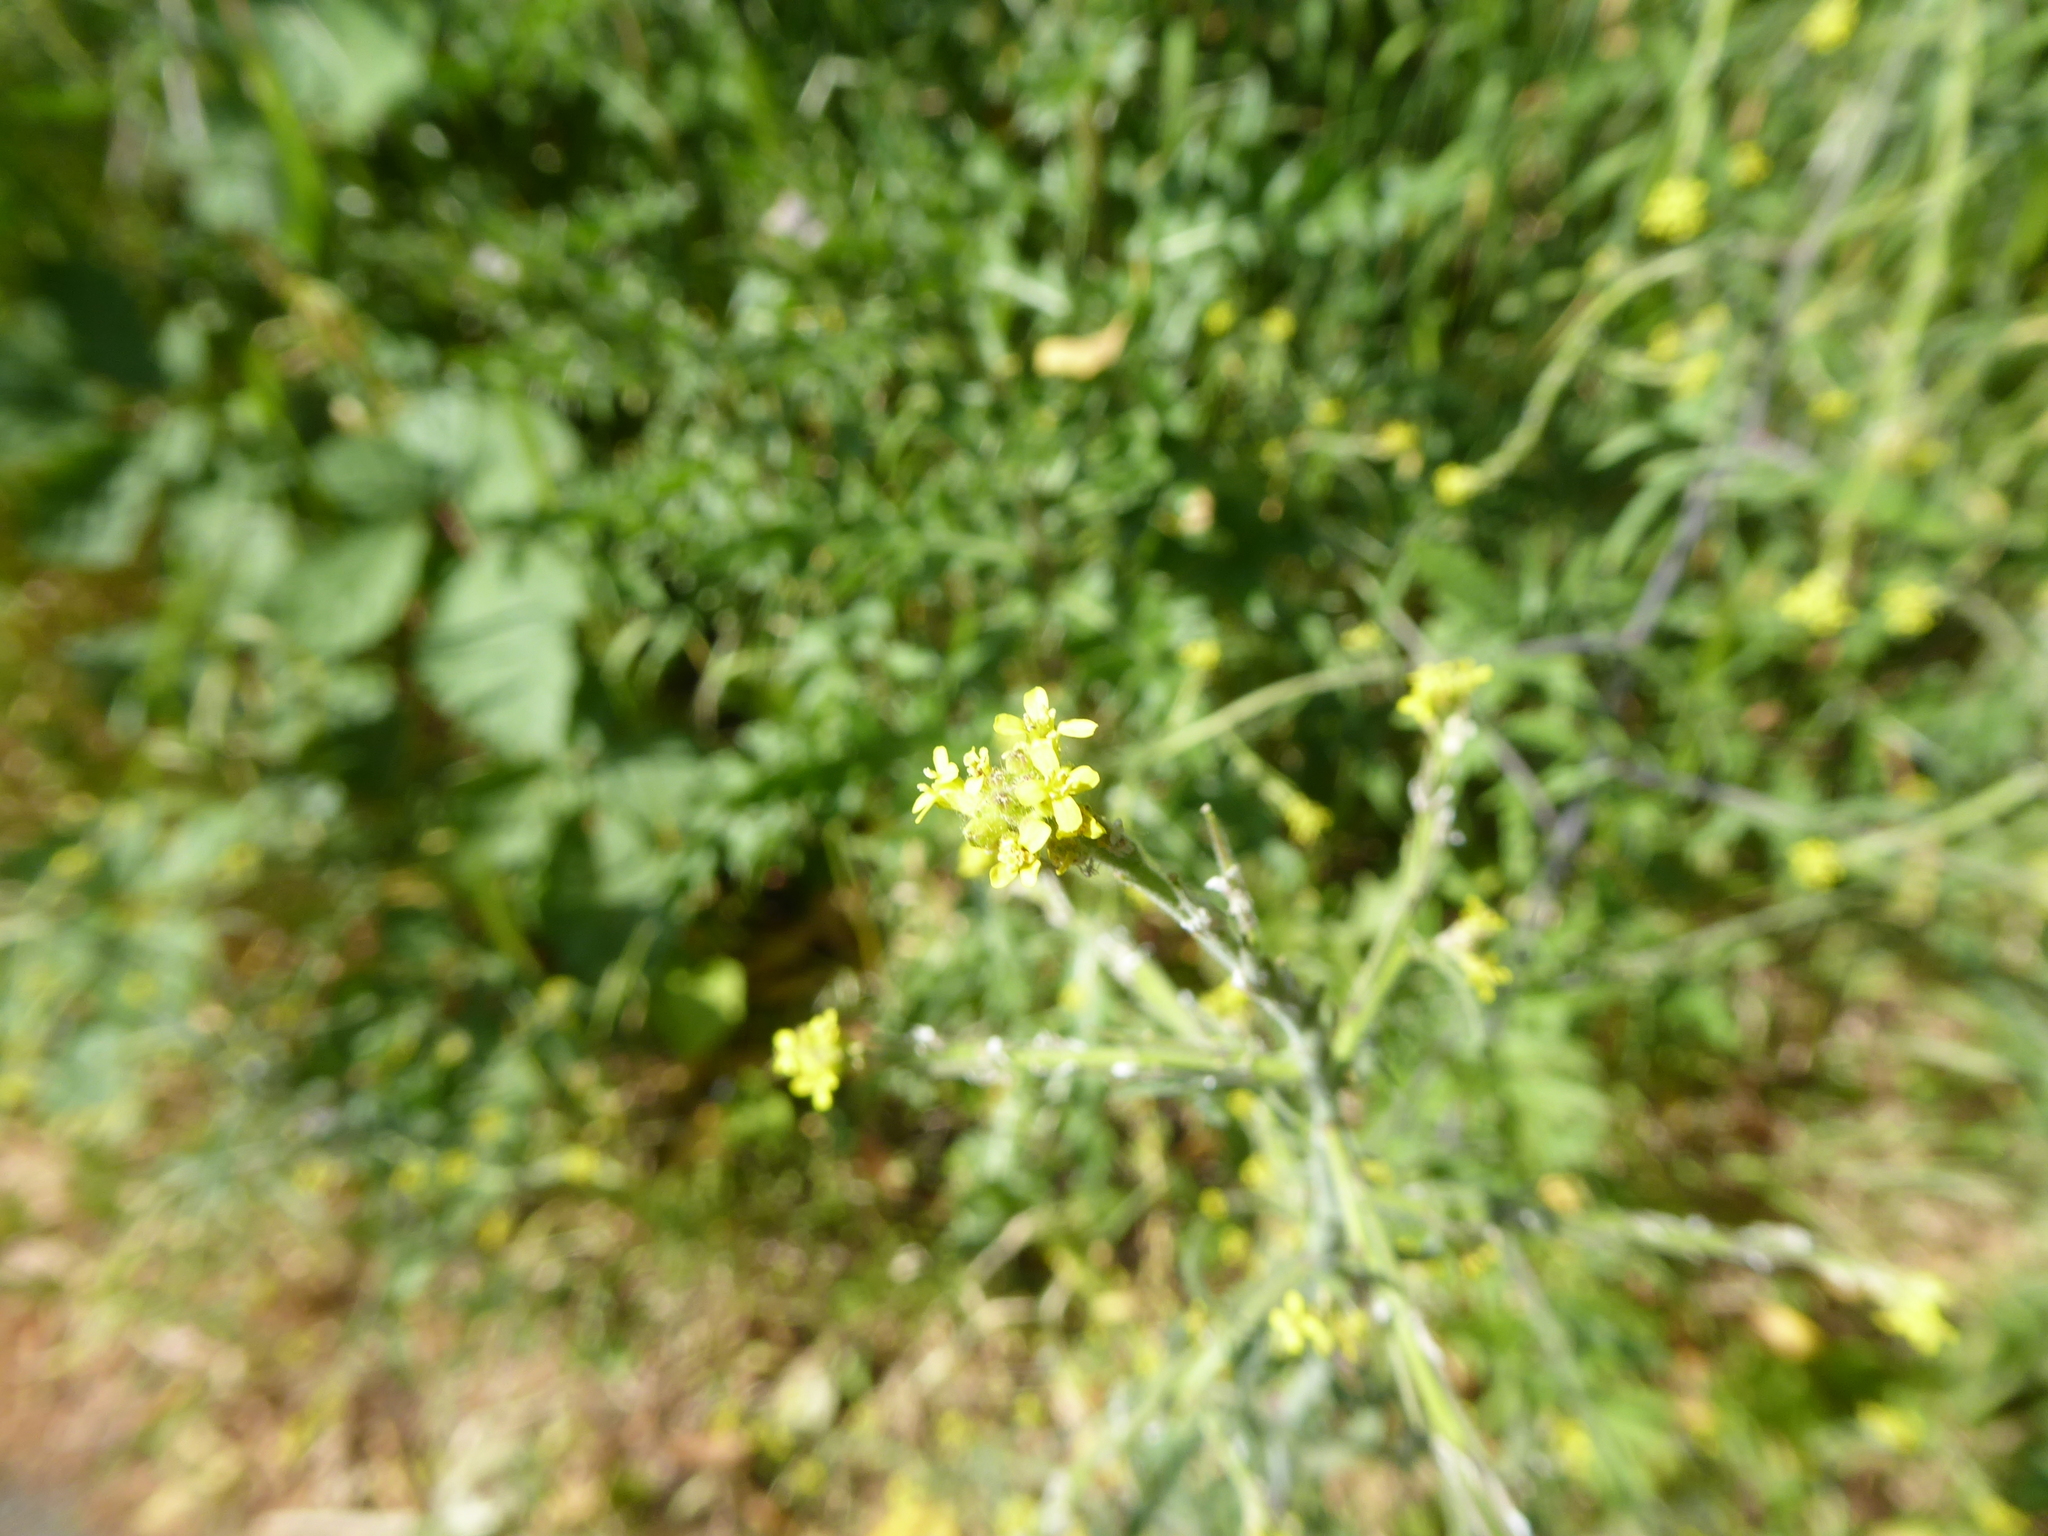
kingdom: Plantae
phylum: Tracheophyta
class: Magnoliopsida
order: Brassicales
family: Brassicaceae
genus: Sisymbrium
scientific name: Sisymbrium officinale
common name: Hedge mustard
